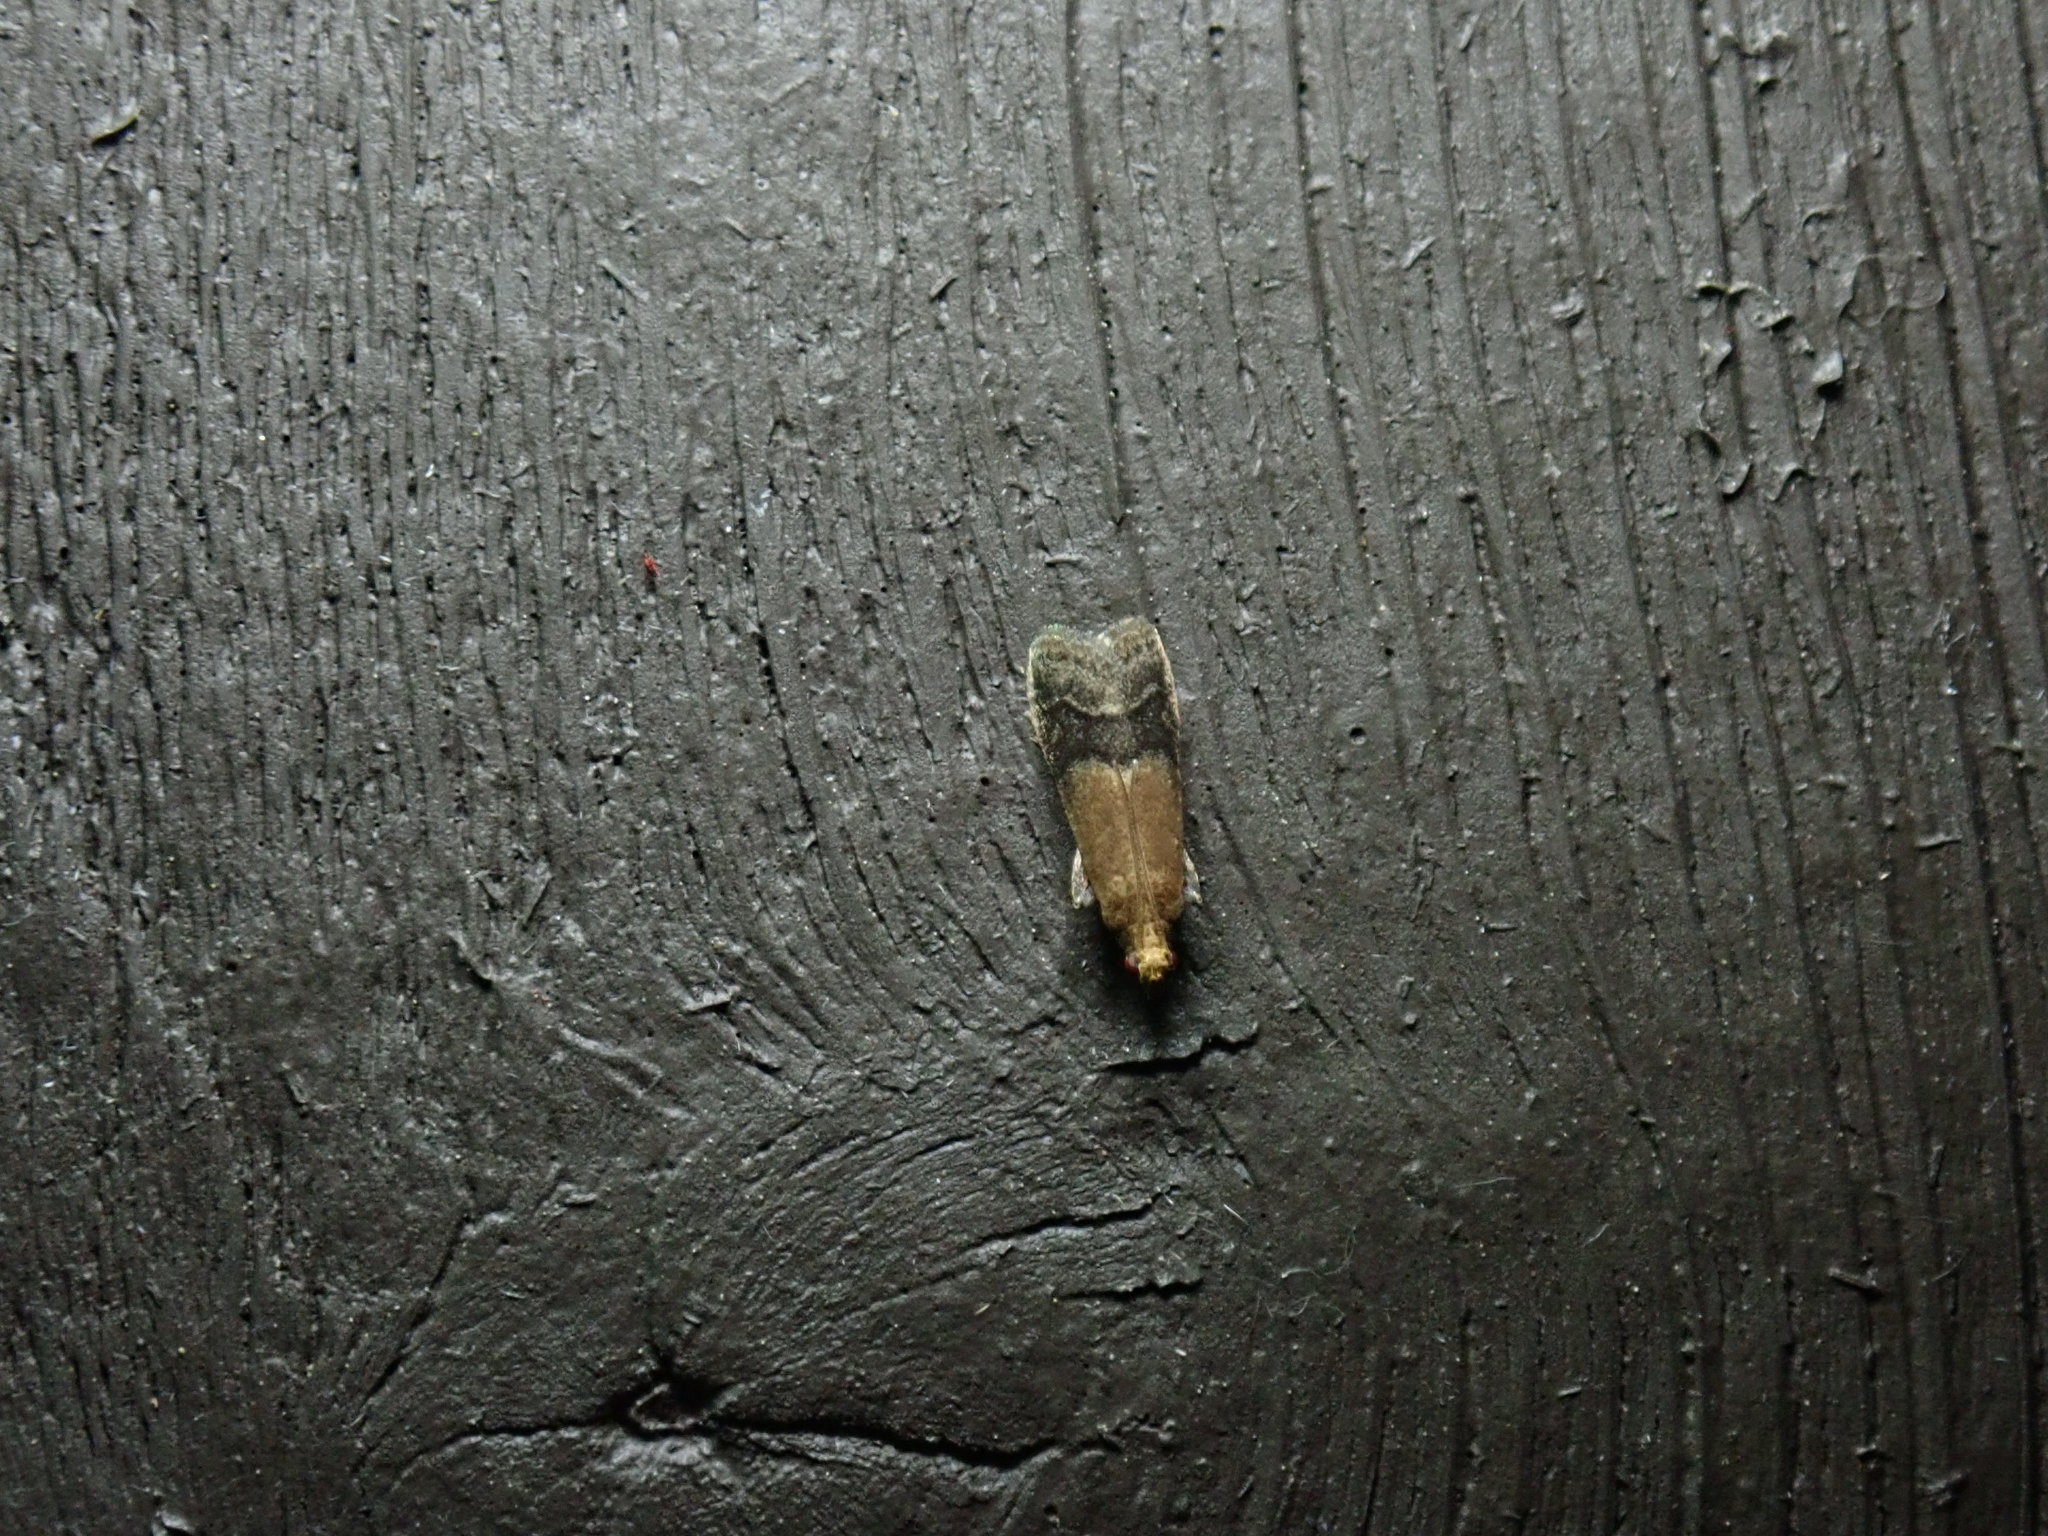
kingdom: Animalia
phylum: Arthropoda
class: Insecta
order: Lepidoptera
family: Pyralidae
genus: Eulogia
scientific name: Eulogia ochrifrontella
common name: Broad-banded eulogia moth
